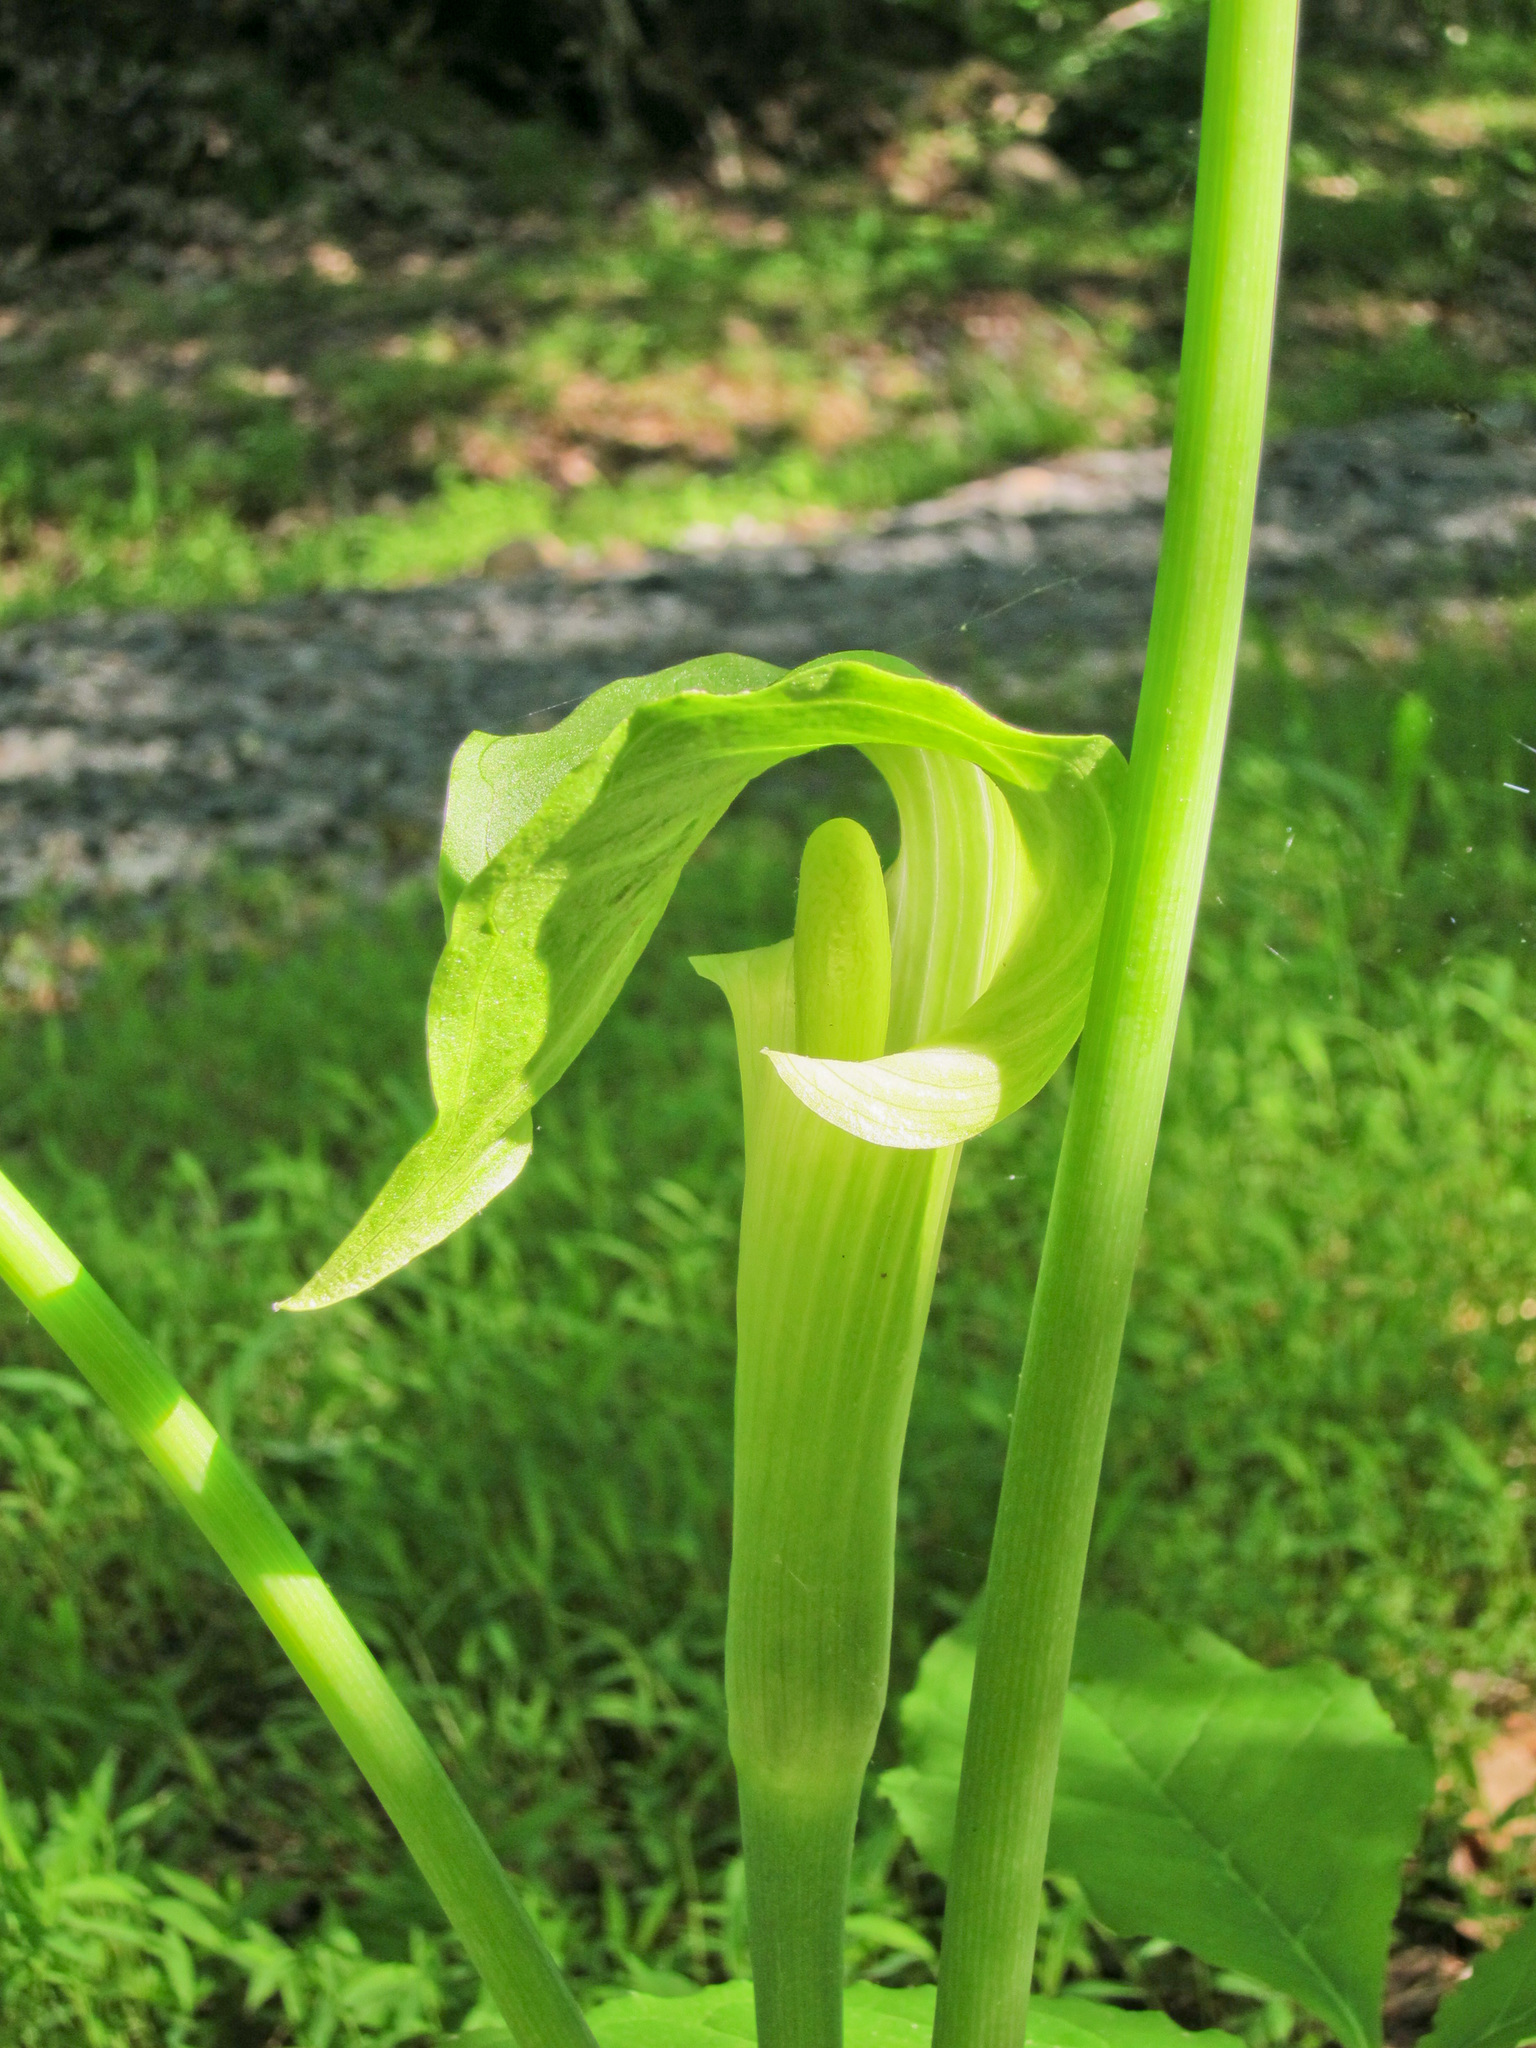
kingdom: Plantae
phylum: Tracheophyta
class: Liliopsida
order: Alismatales
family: Araceae
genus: Arisaema
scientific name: Arisaema triphyllum
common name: Jack-in-the-pulpit
